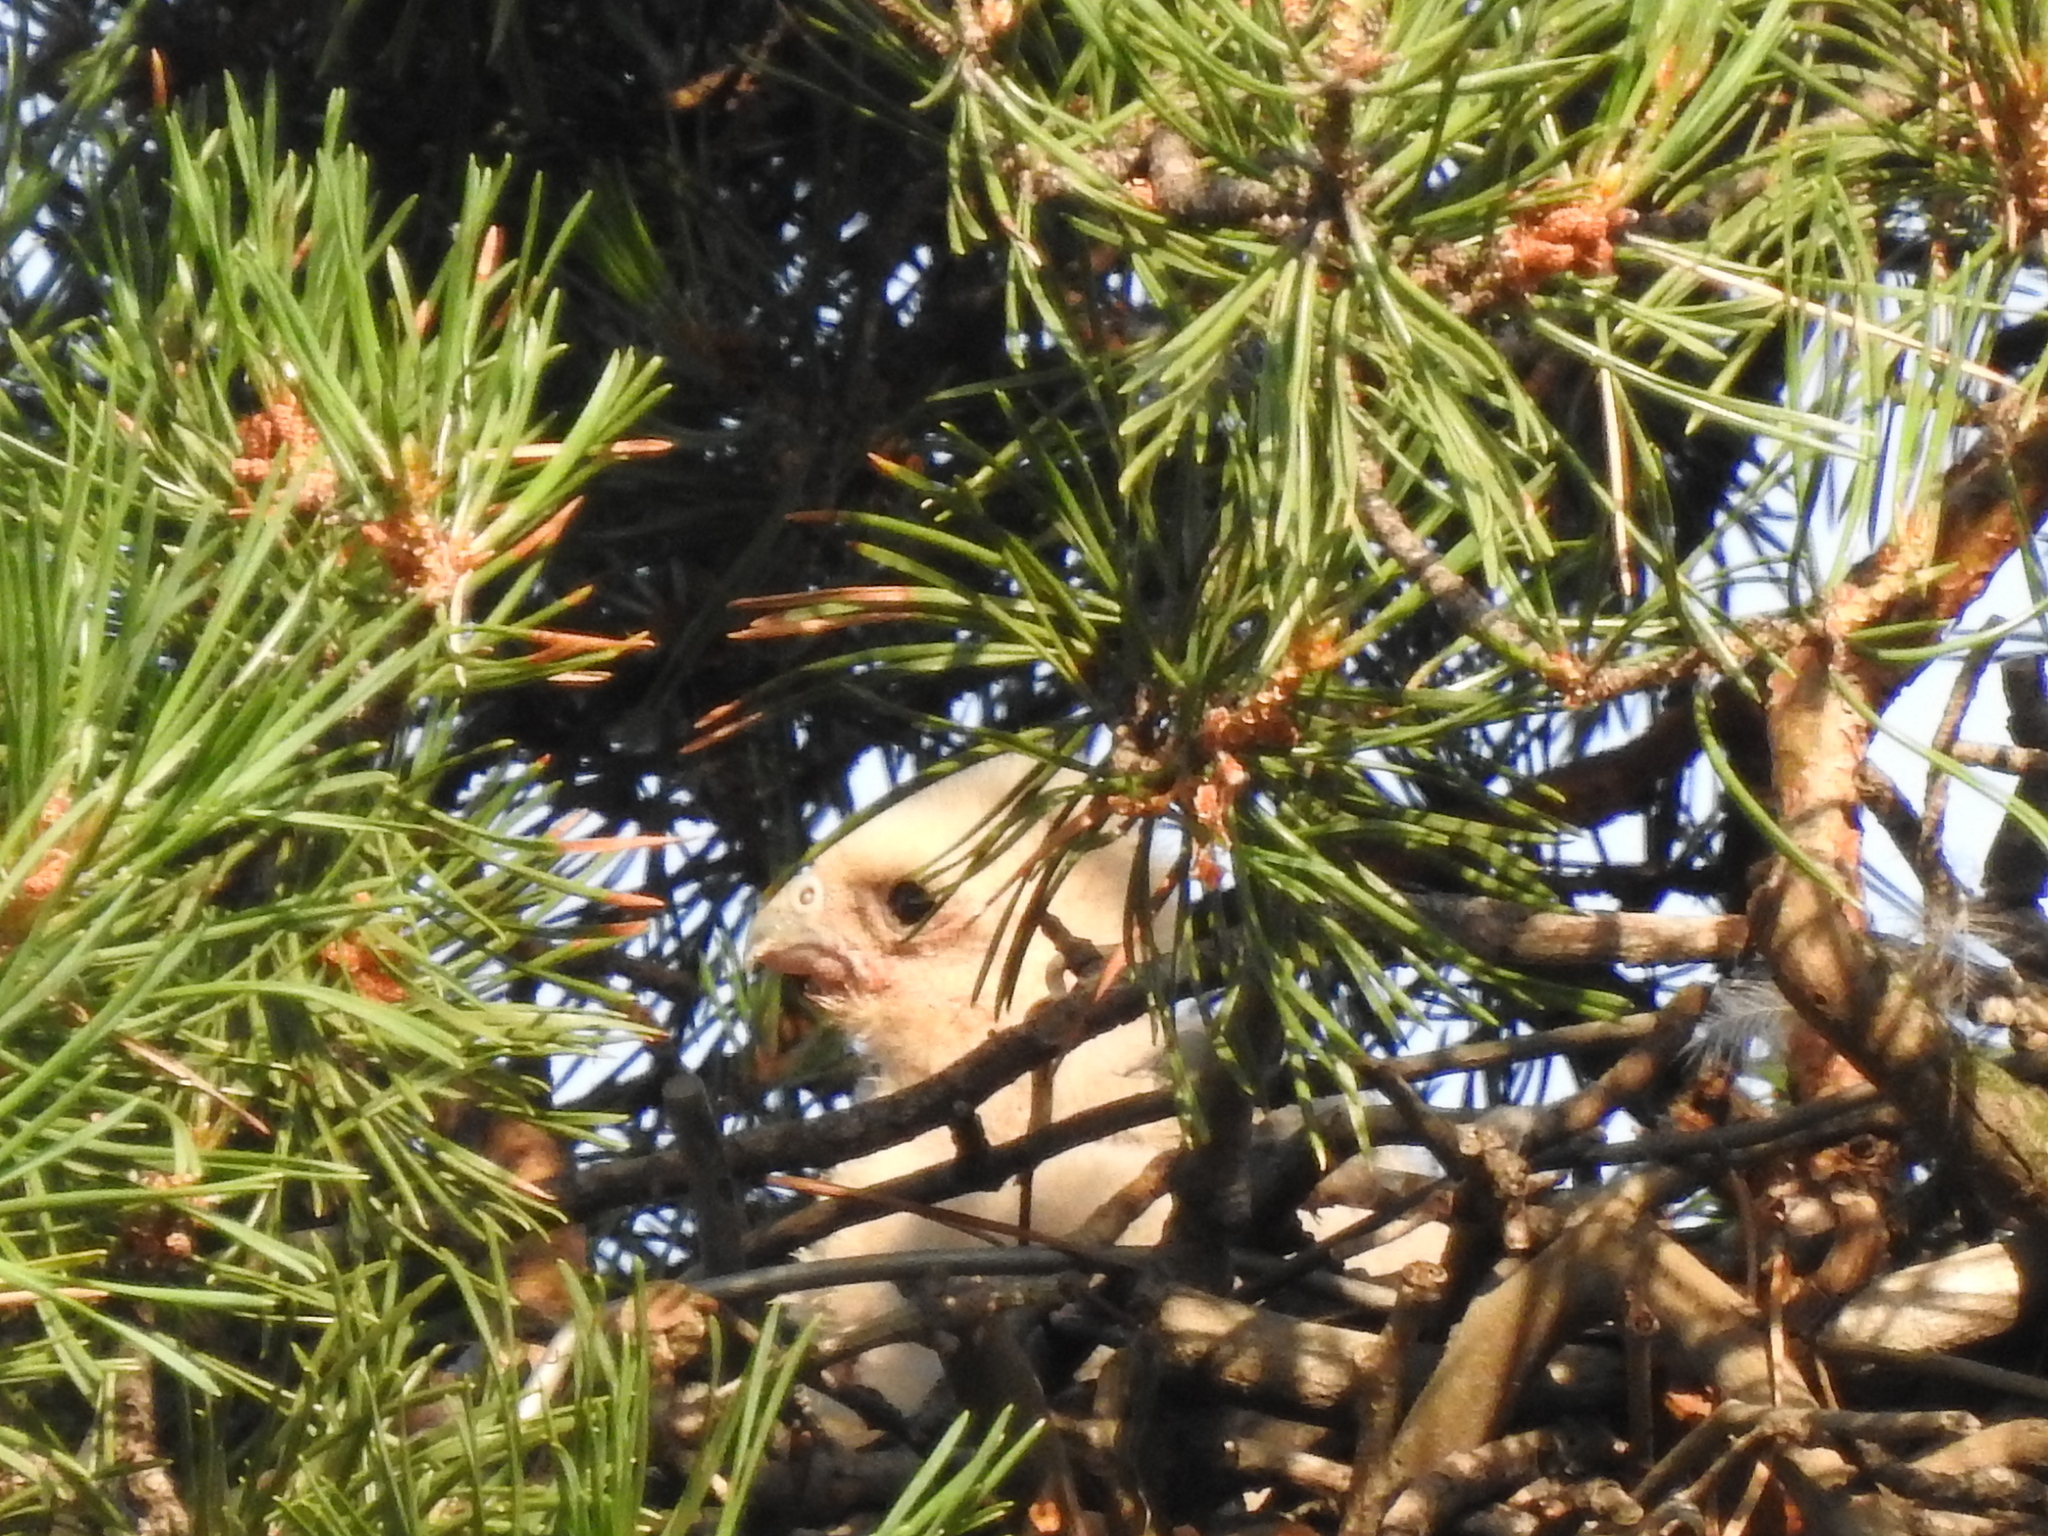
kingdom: Animalia
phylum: Chordata
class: Aves
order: Falconiformes
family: Falconidae
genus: Falco
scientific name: Falco subbuteo
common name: Eurasian hobby
